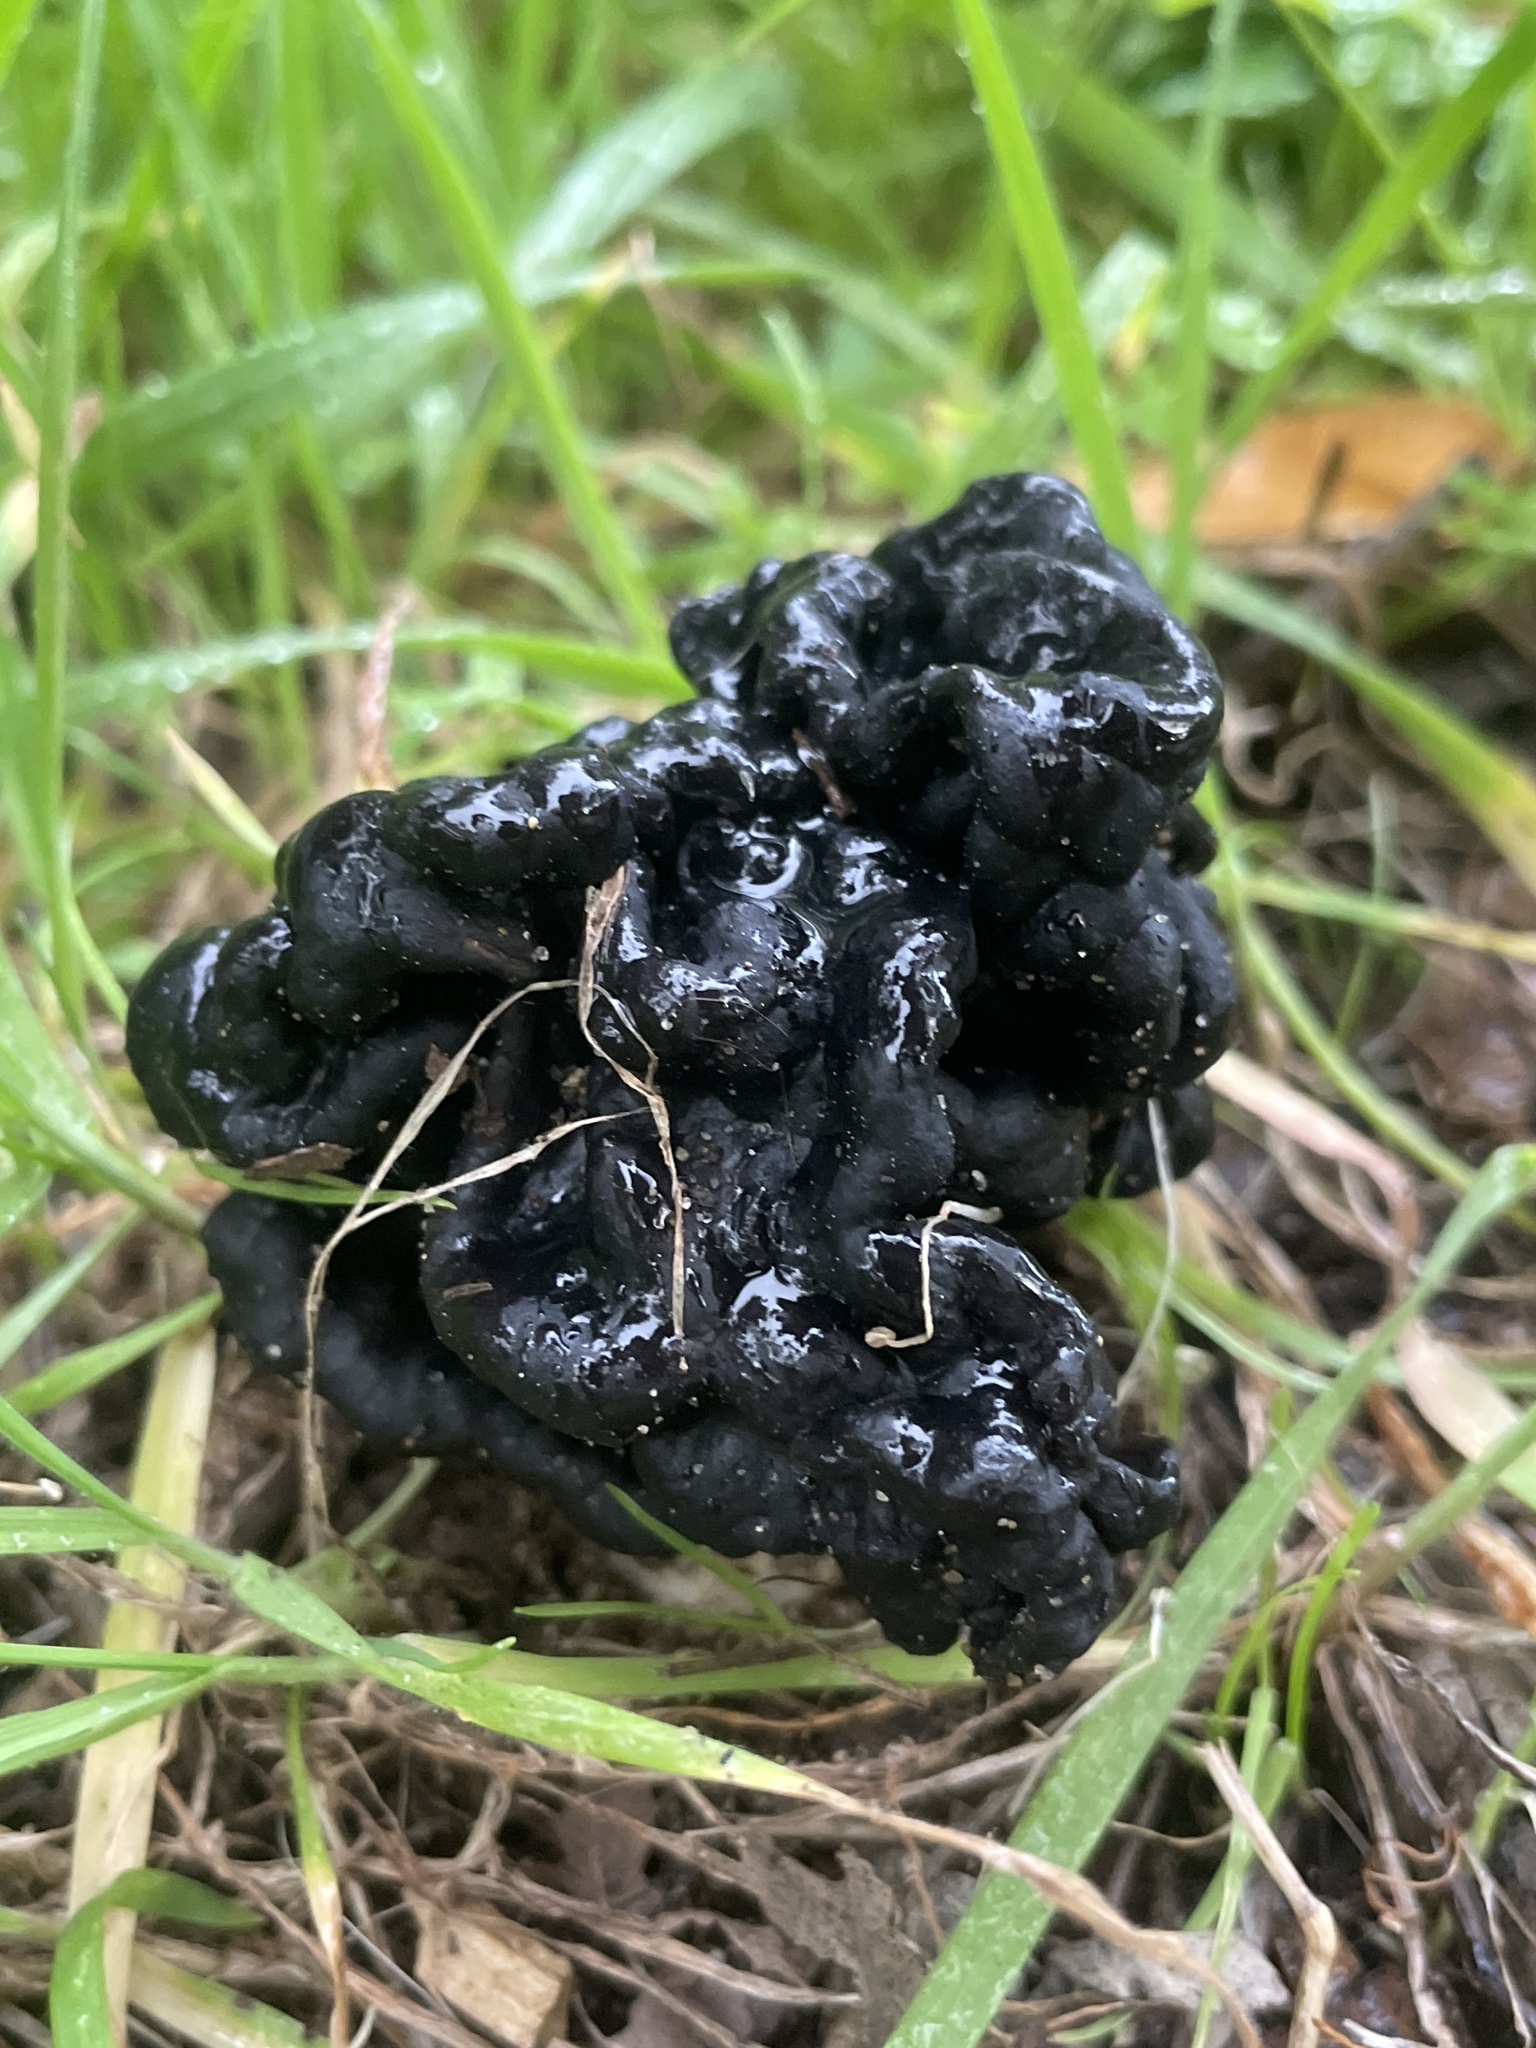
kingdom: Fungi
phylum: Ascomycota
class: Pezizomycetes
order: Pezizales
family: Helvellaceae
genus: Helvella
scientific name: Helvella dryophila
